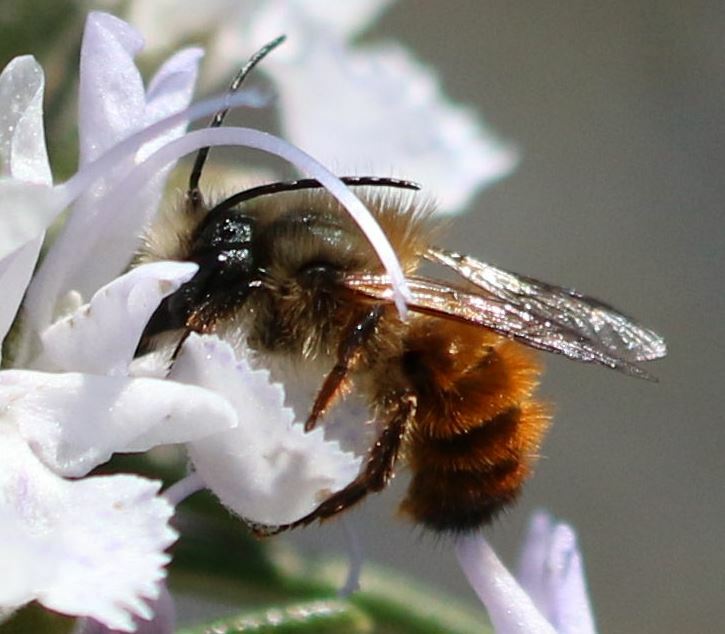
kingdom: Animalia
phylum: Arthropoda
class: Insecta
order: Hymenoptera
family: Megachilidae
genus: Osmia
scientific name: Osmia bicornis
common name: Red mason bee
